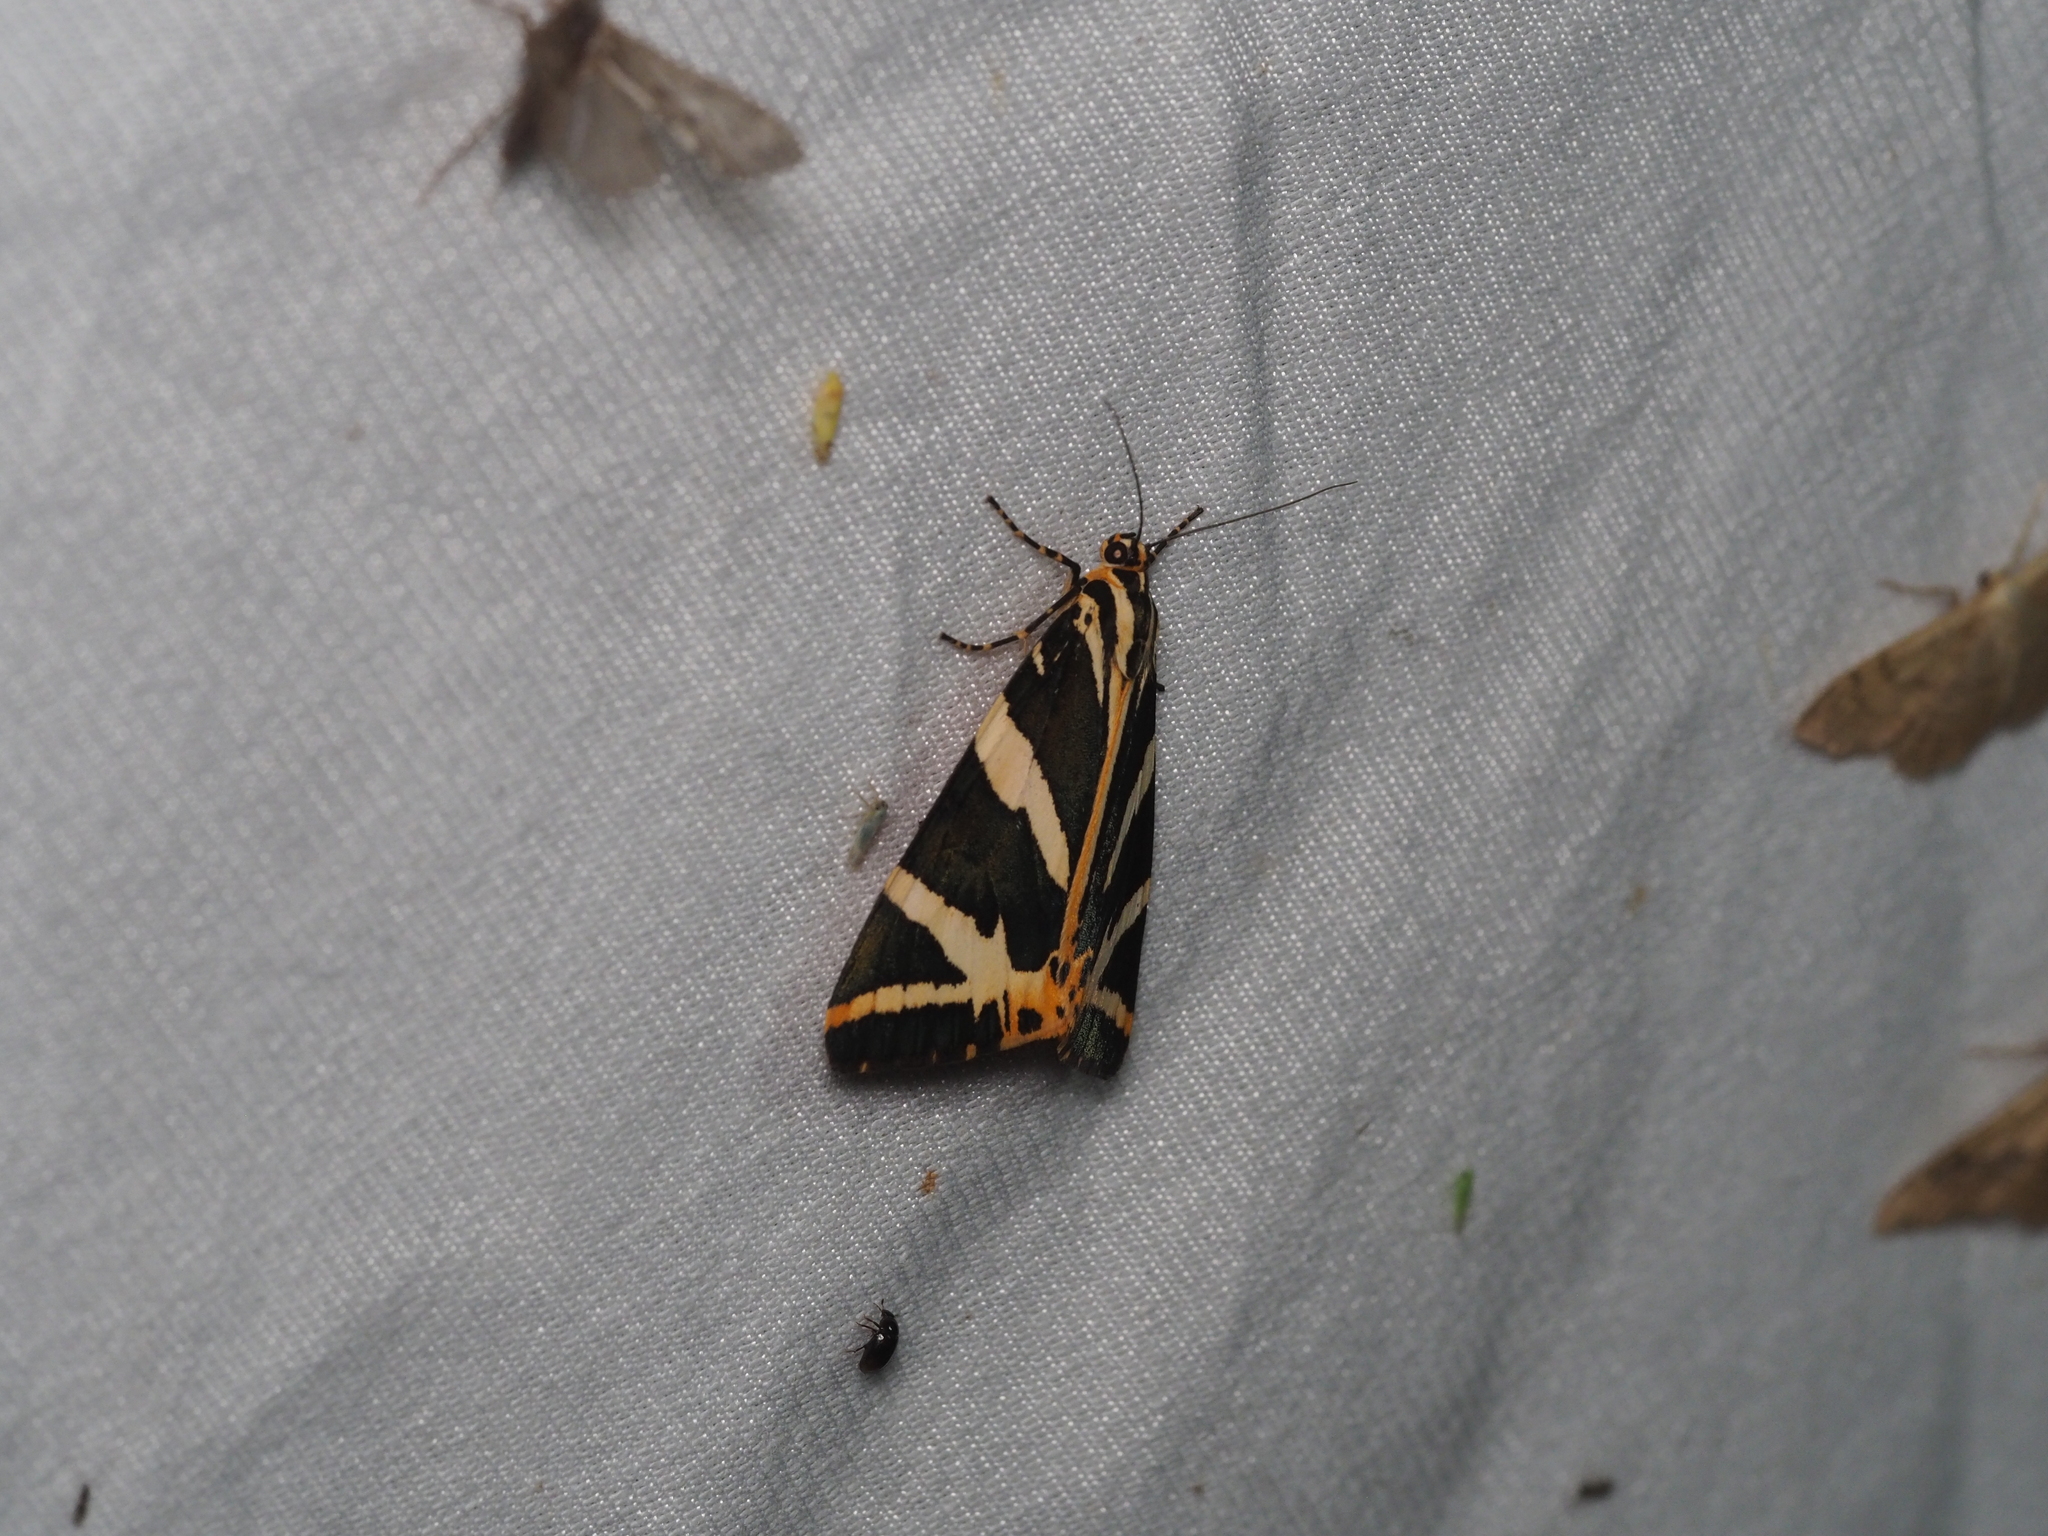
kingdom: Animalia
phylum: Arthropoda
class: Insecta
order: Lepidoptera
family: Erebidae
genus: Euplagia
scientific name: Euplagia quadripunctaria
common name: Jersey tiger
